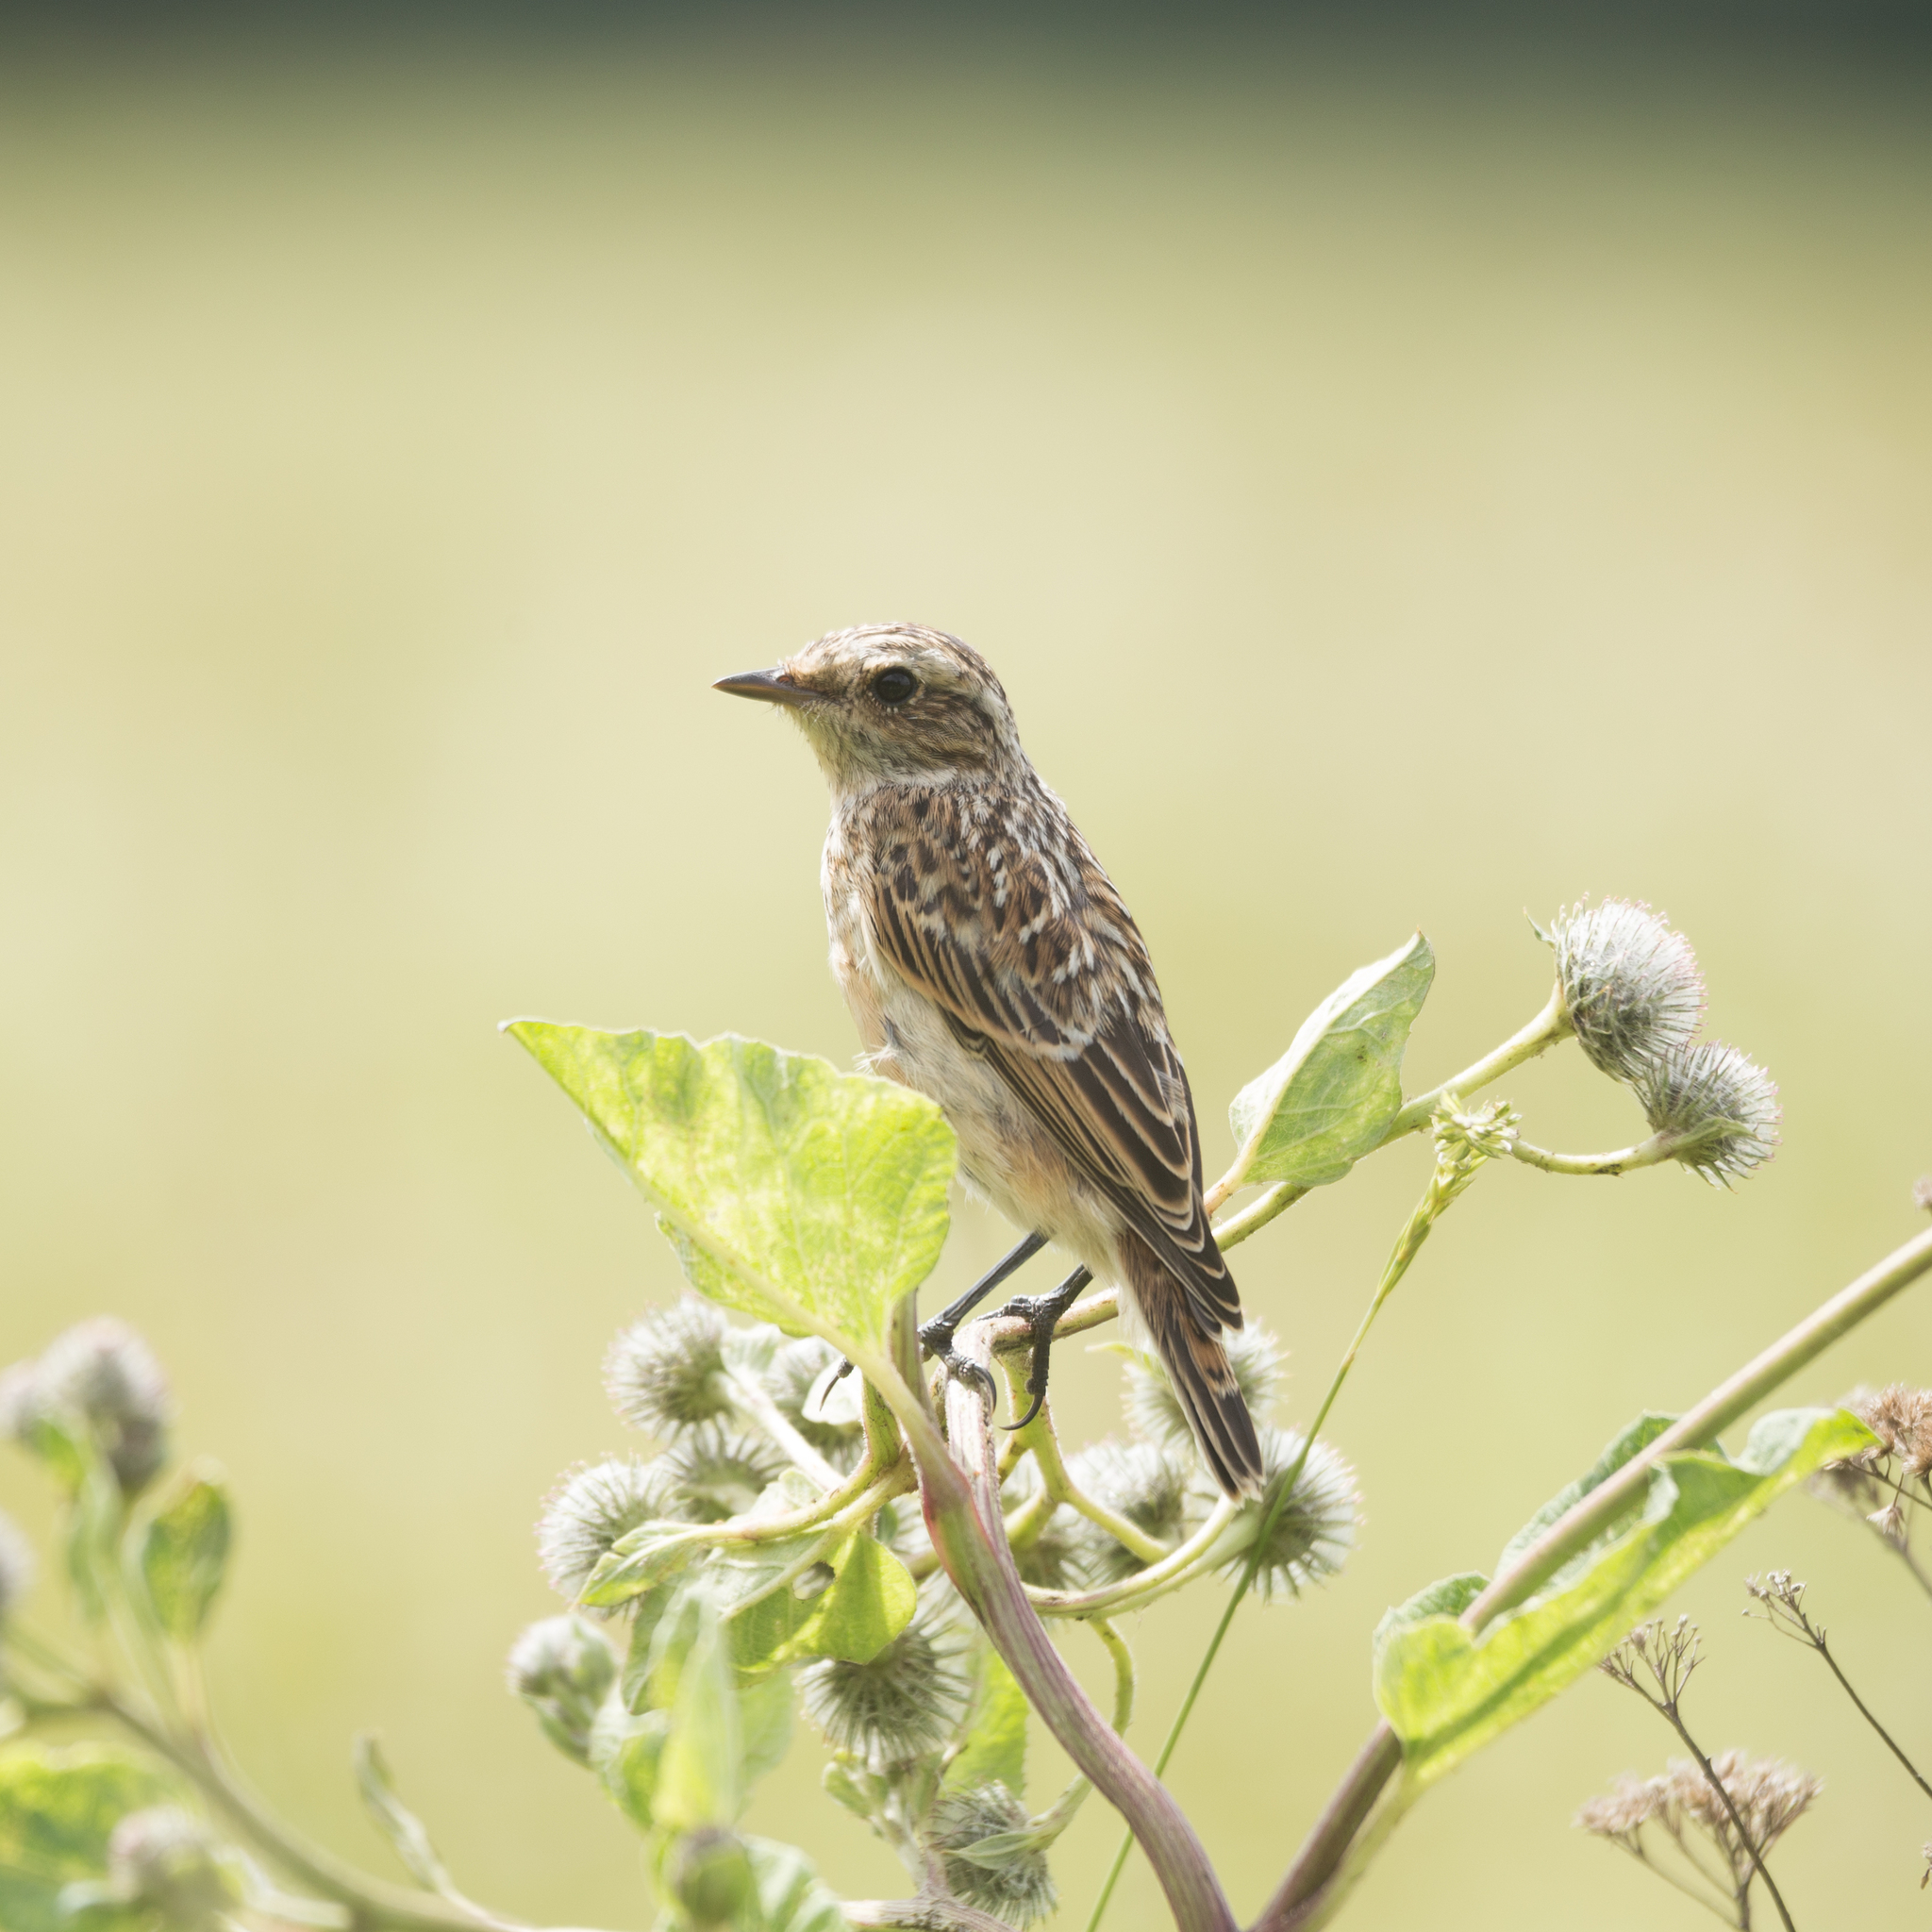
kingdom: Animalia
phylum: Chordata
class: Aves
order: Passeriformes
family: Muscicapidae
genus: Saxicola
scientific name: Saxicola rubetra
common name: Whinchat
